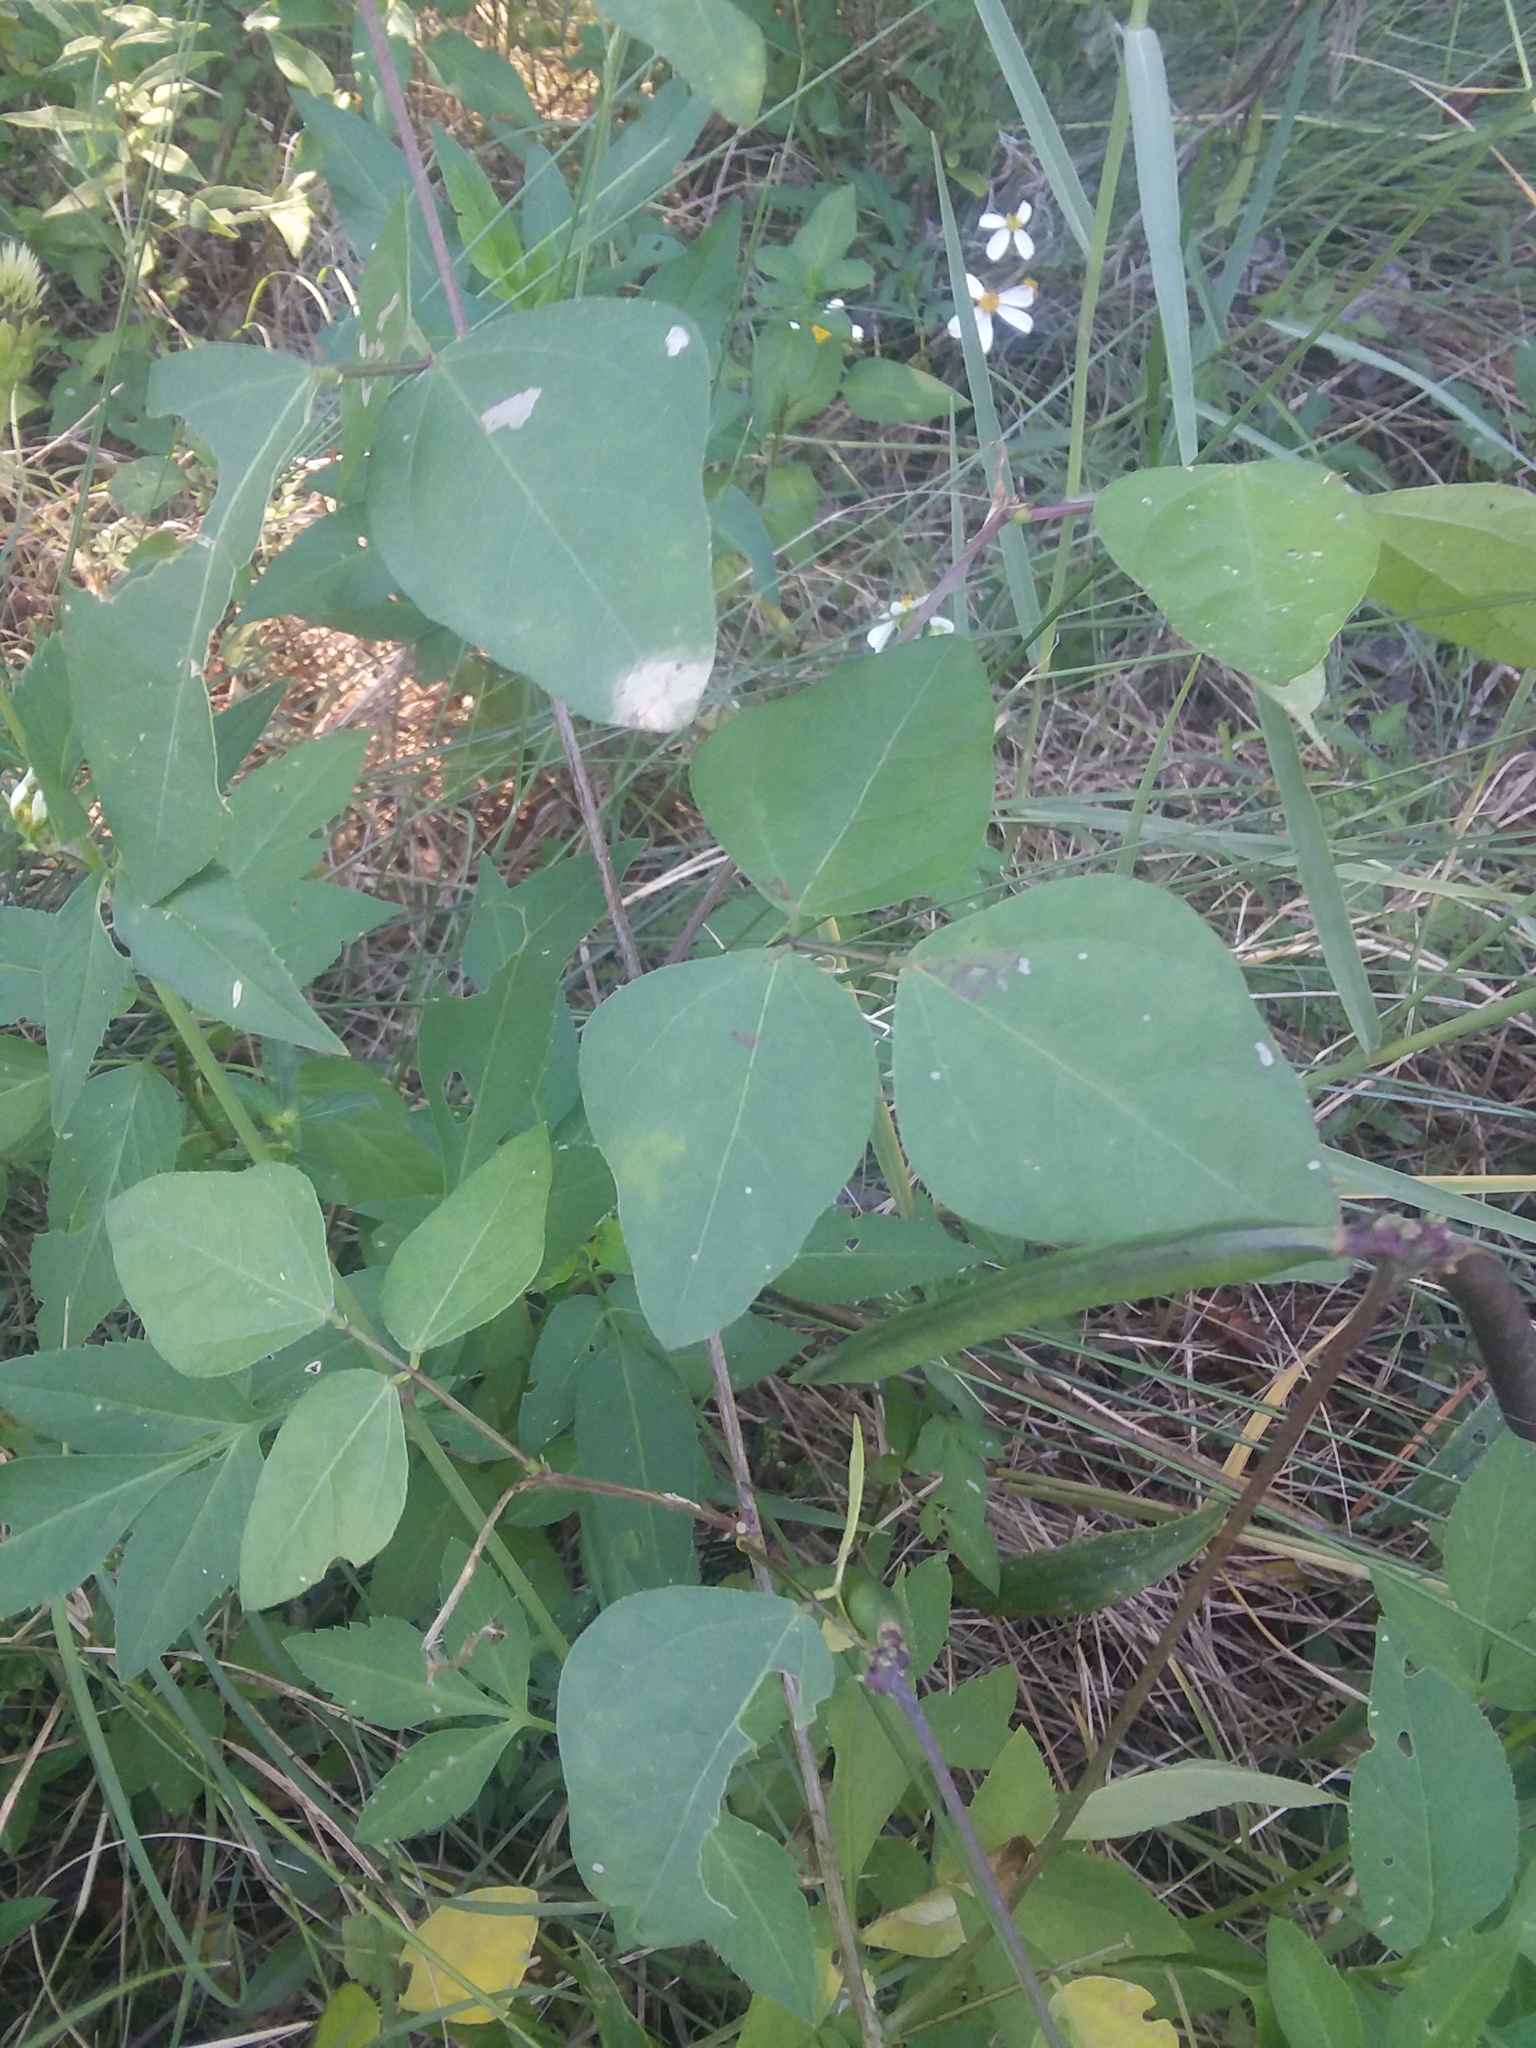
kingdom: Plantae
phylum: Tracheophyta
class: Magnoliopsida
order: Fabales
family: Fabaceae
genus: Strophostyles
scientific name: Strophostyles helvola
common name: Trailing wild bean
